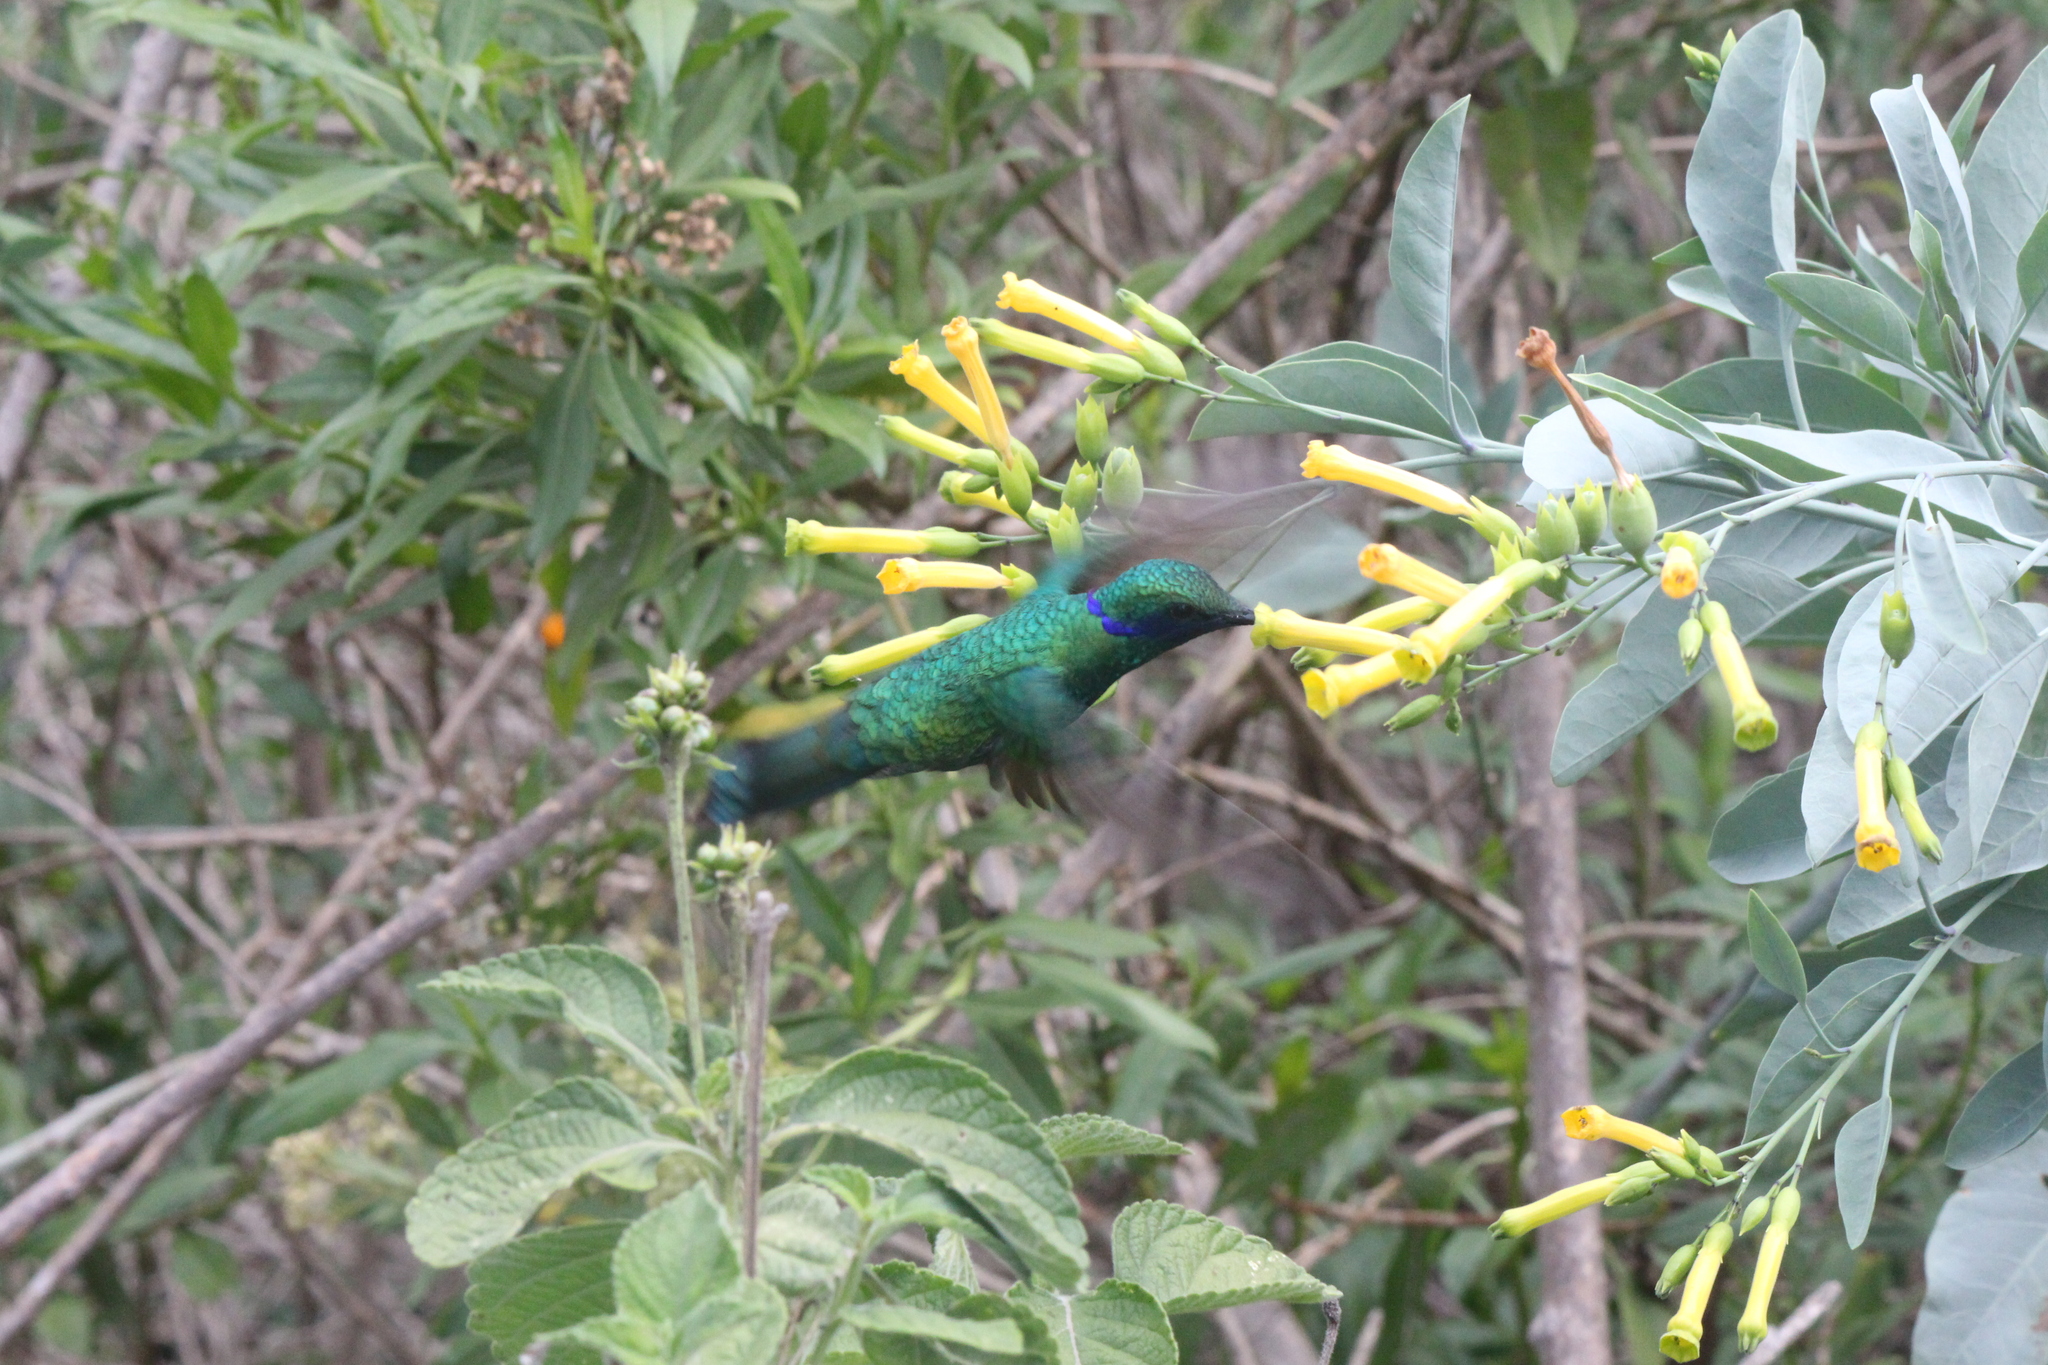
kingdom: Animalia
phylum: Chordata
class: Aves
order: Apodiformes
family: Trochilidae
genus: Colibri
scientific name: Colibri coruscans
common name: Sparkling violetear
